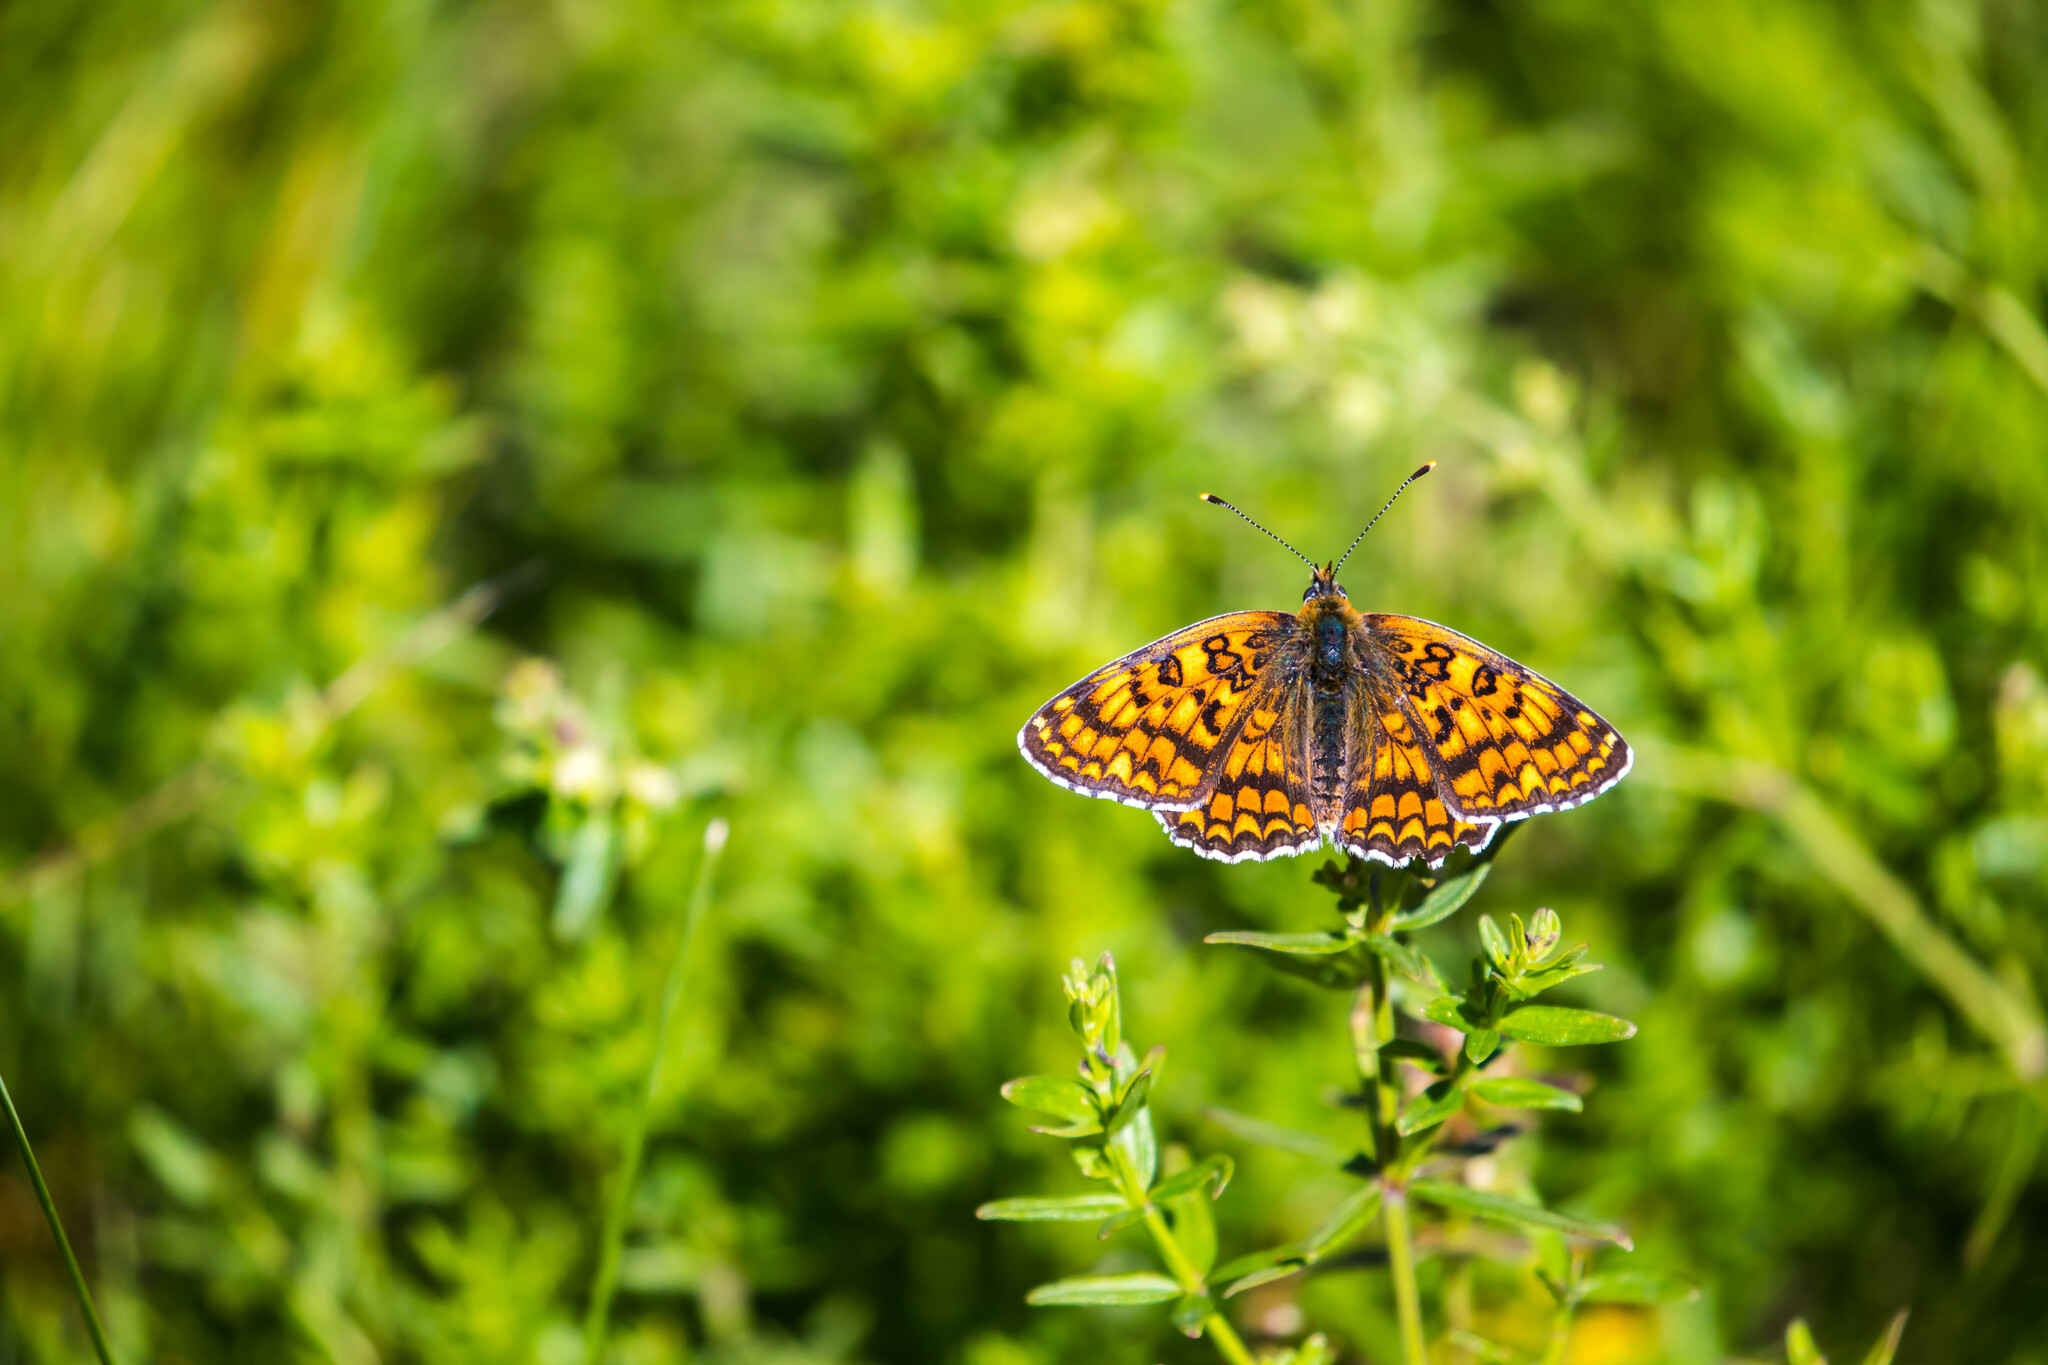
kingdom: Animalia
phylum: Arthropoda
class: Insecta
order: Lepidoptera
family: Nymphalidae
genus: Melitaea
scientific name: Melitaea phoebe
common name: Knapweed fritillary
